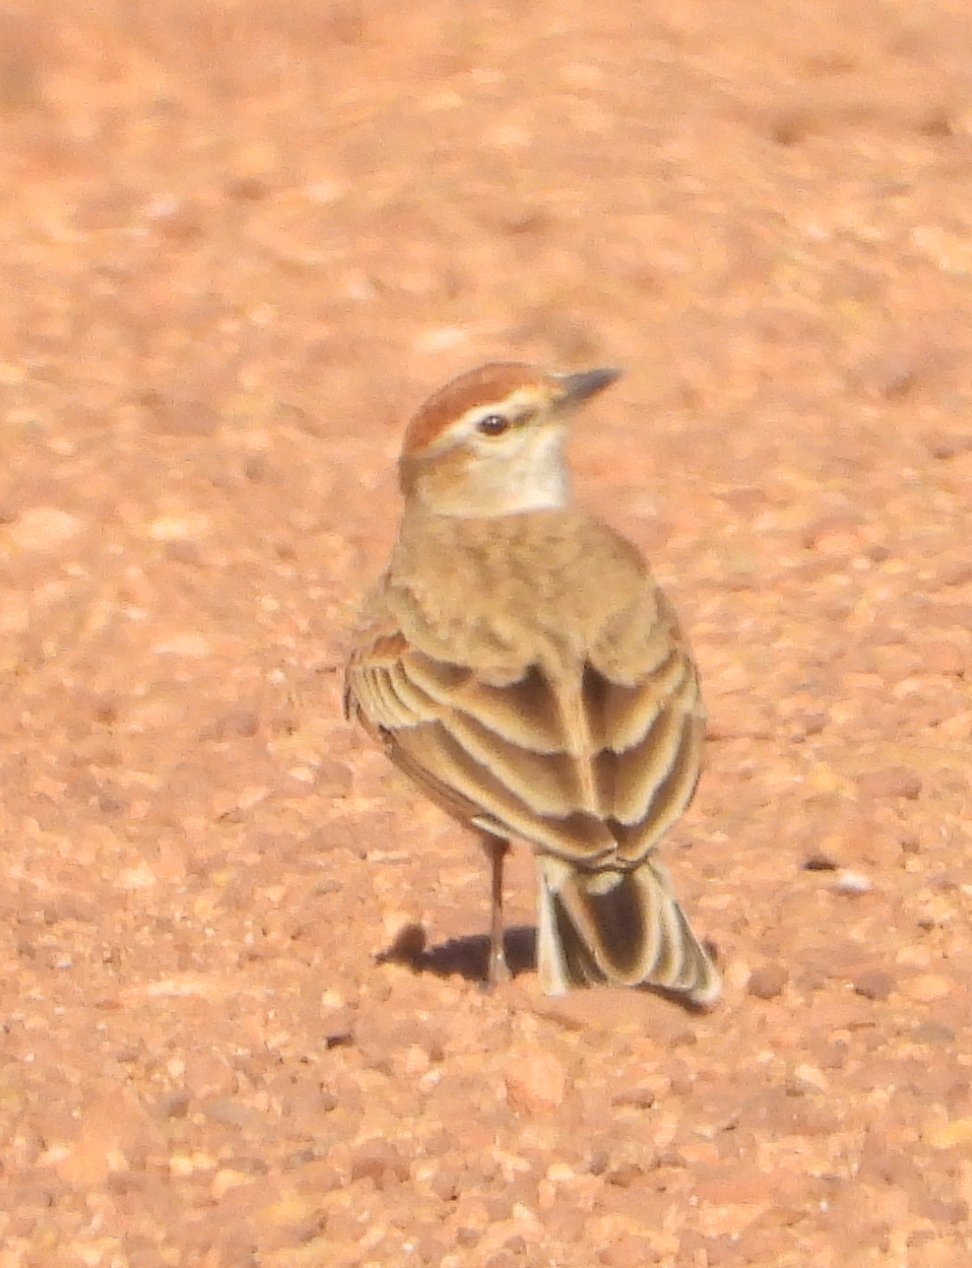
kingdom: Animalia
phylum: Chordata
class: Aves
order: Passeriformes
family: Alaudidae
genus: Calandrella
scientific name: Calandrella cinerea
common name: Red-capped lark
